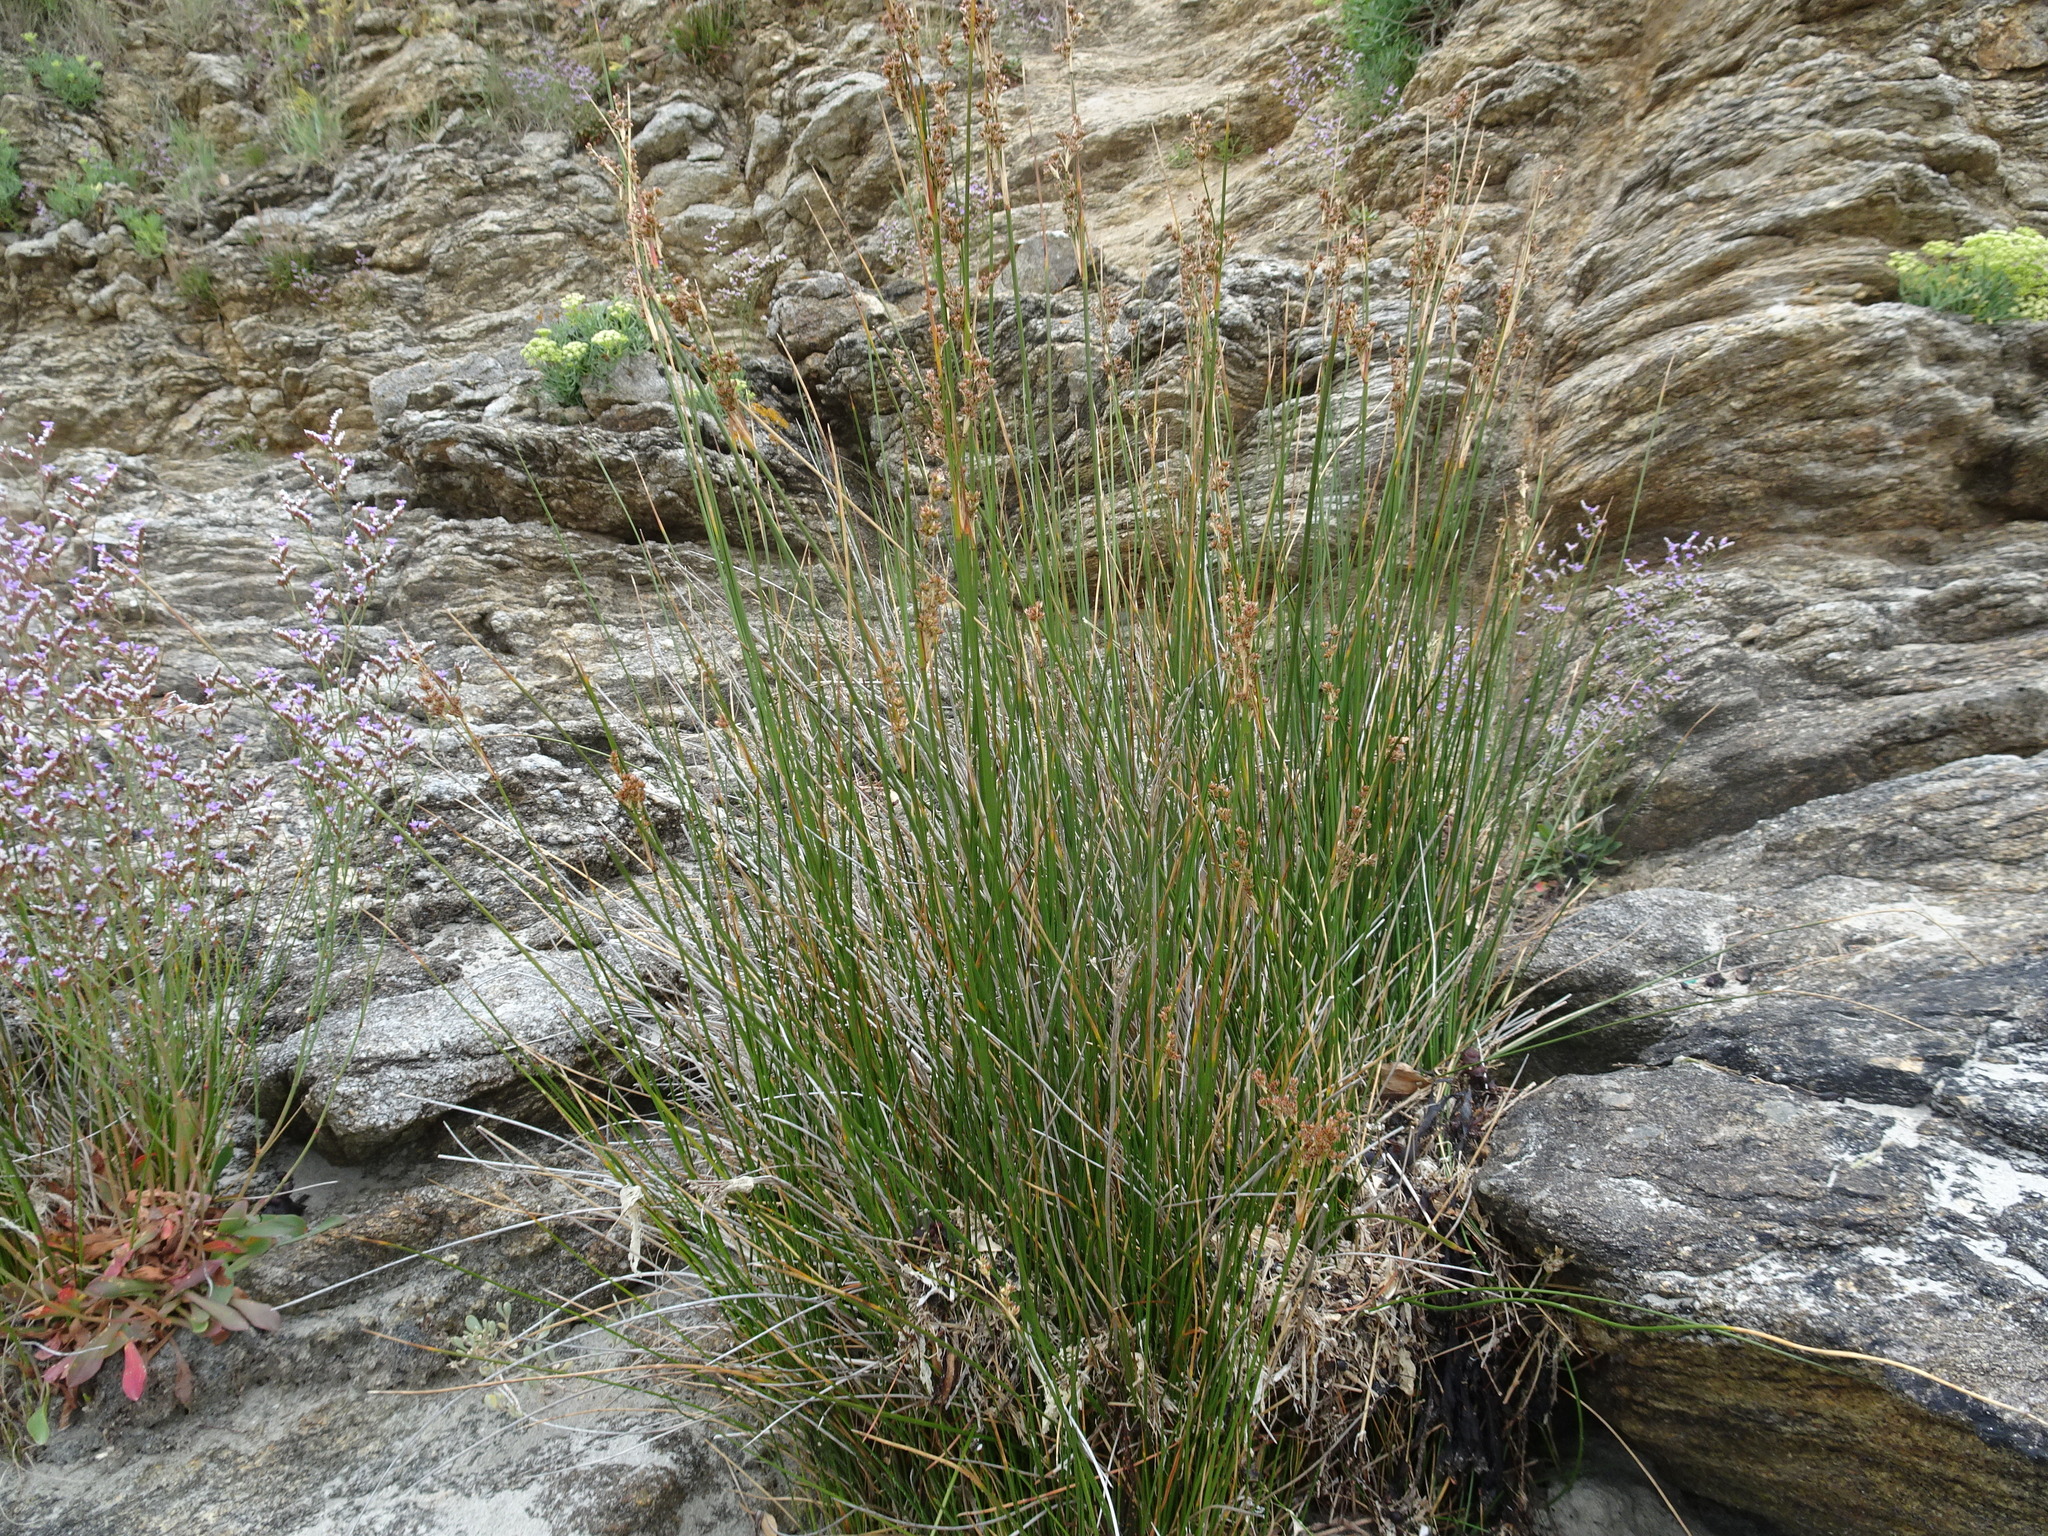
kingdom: Plantae
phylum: Tracheophyta
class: Liliopsida
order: Poales
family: Juncaceae
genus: Juncus
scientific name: Juncus maritimus
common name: Sea rush
